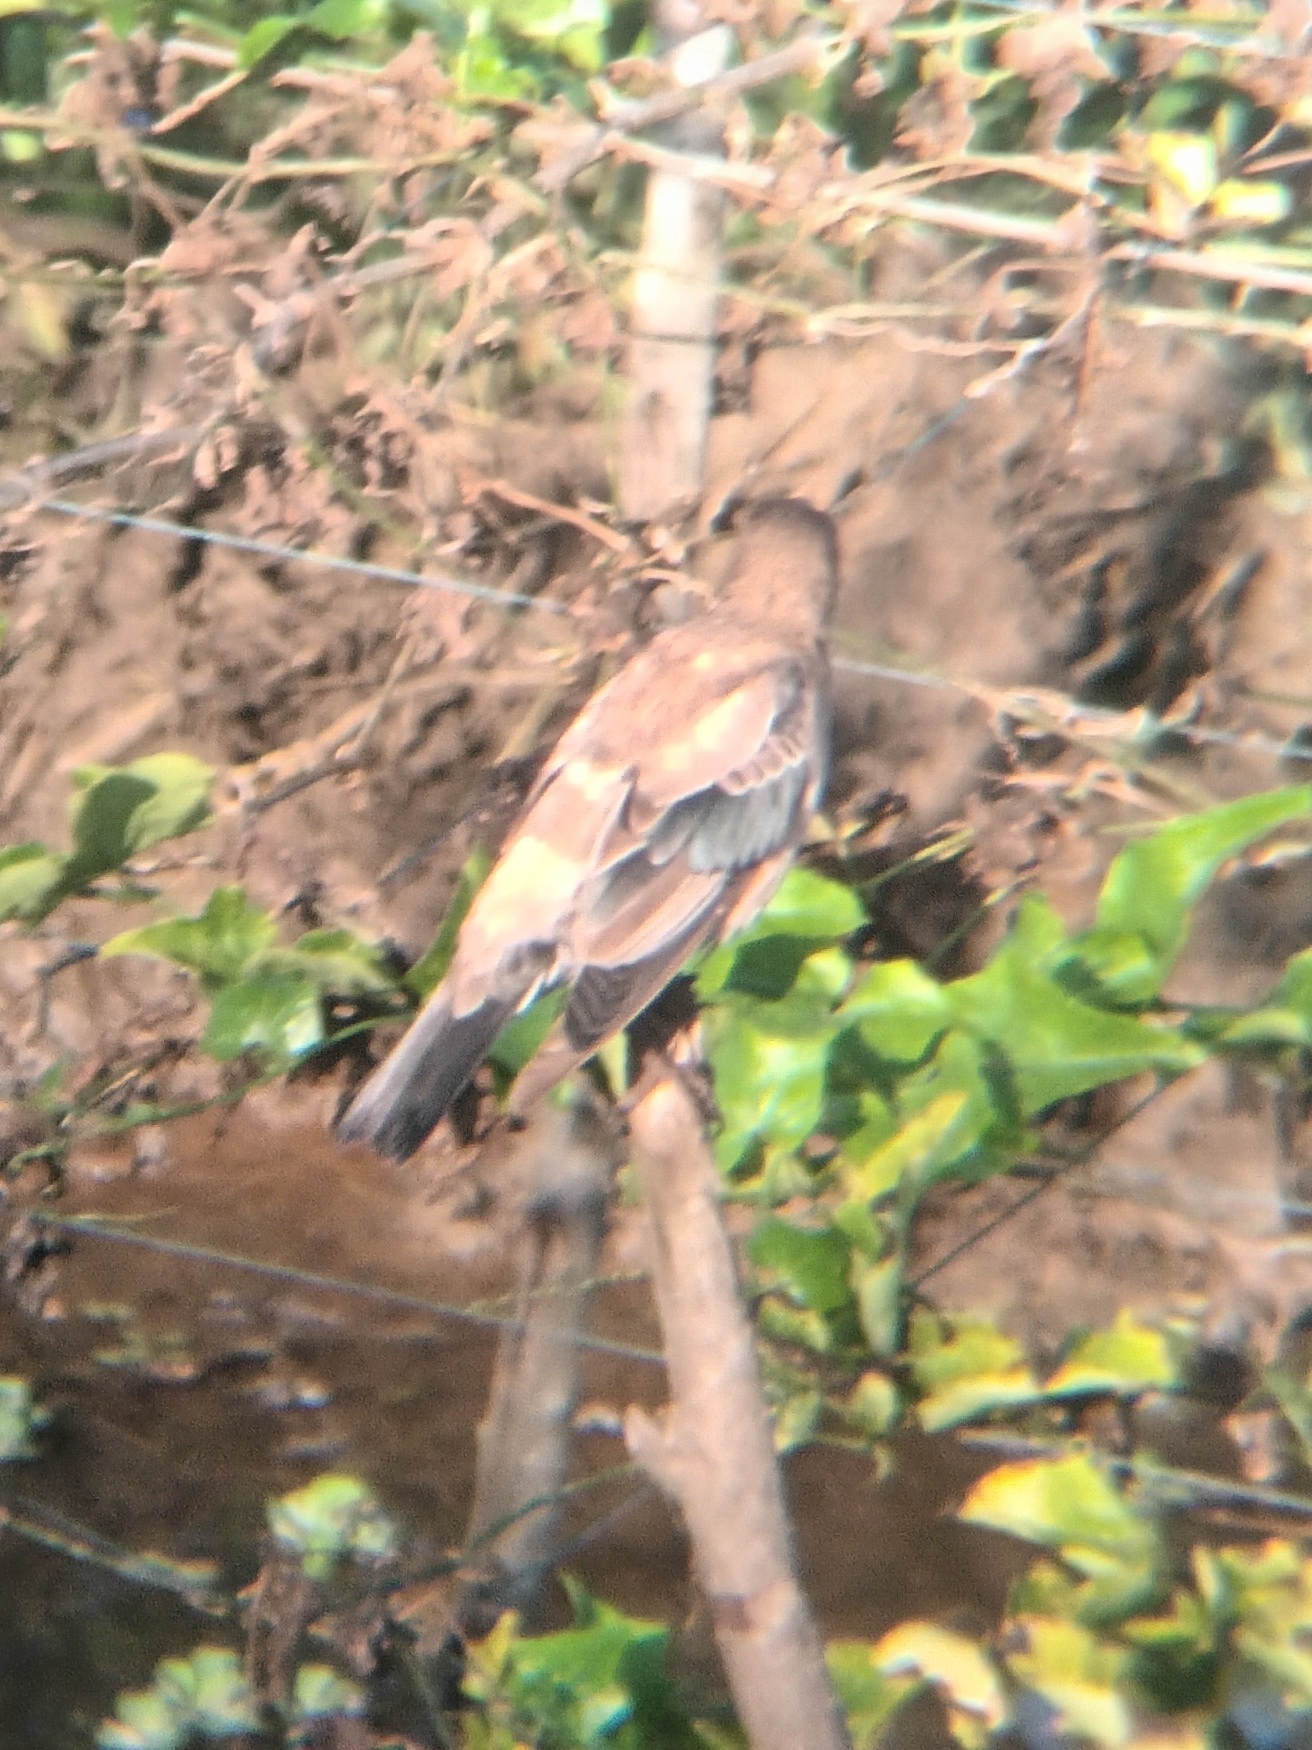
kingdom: Animalia
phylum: Chordata
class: Aves
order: Passeriformes
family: Sturnidae
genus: Pastor
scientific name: Pastor roseus
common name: Rosy starling
